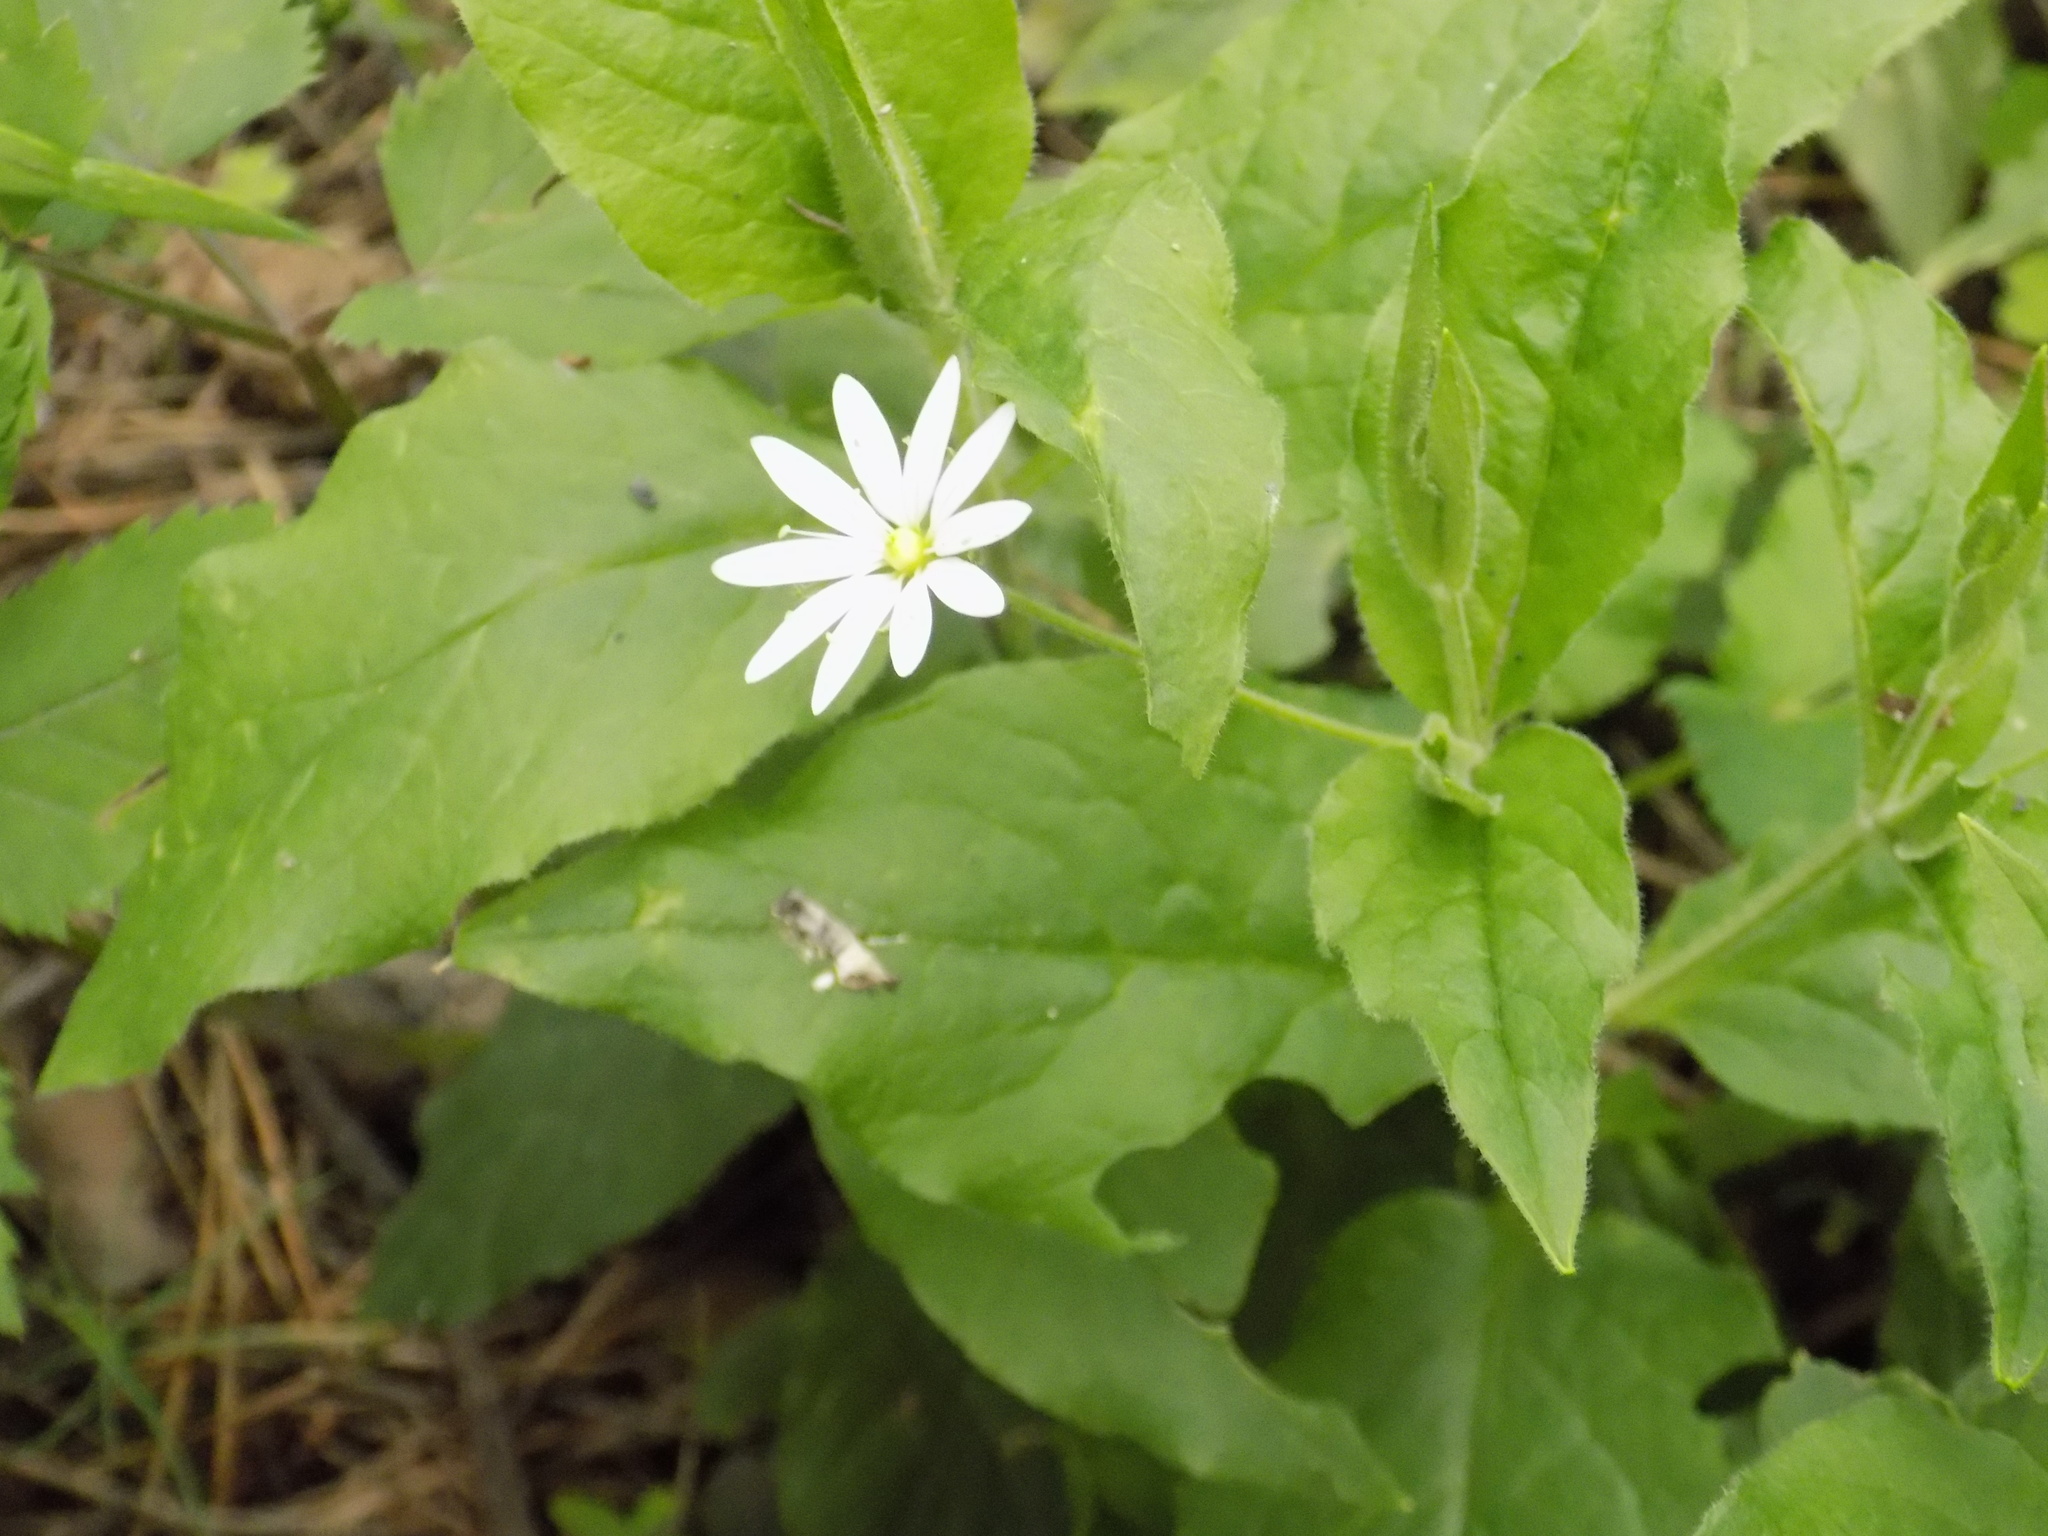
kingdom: Plantae
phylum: Tracheophyta
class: Magnoliopsida
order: Caryophyllales
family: Caryophyllaceae
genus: Stellaria
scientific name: Stellaria bungeana
